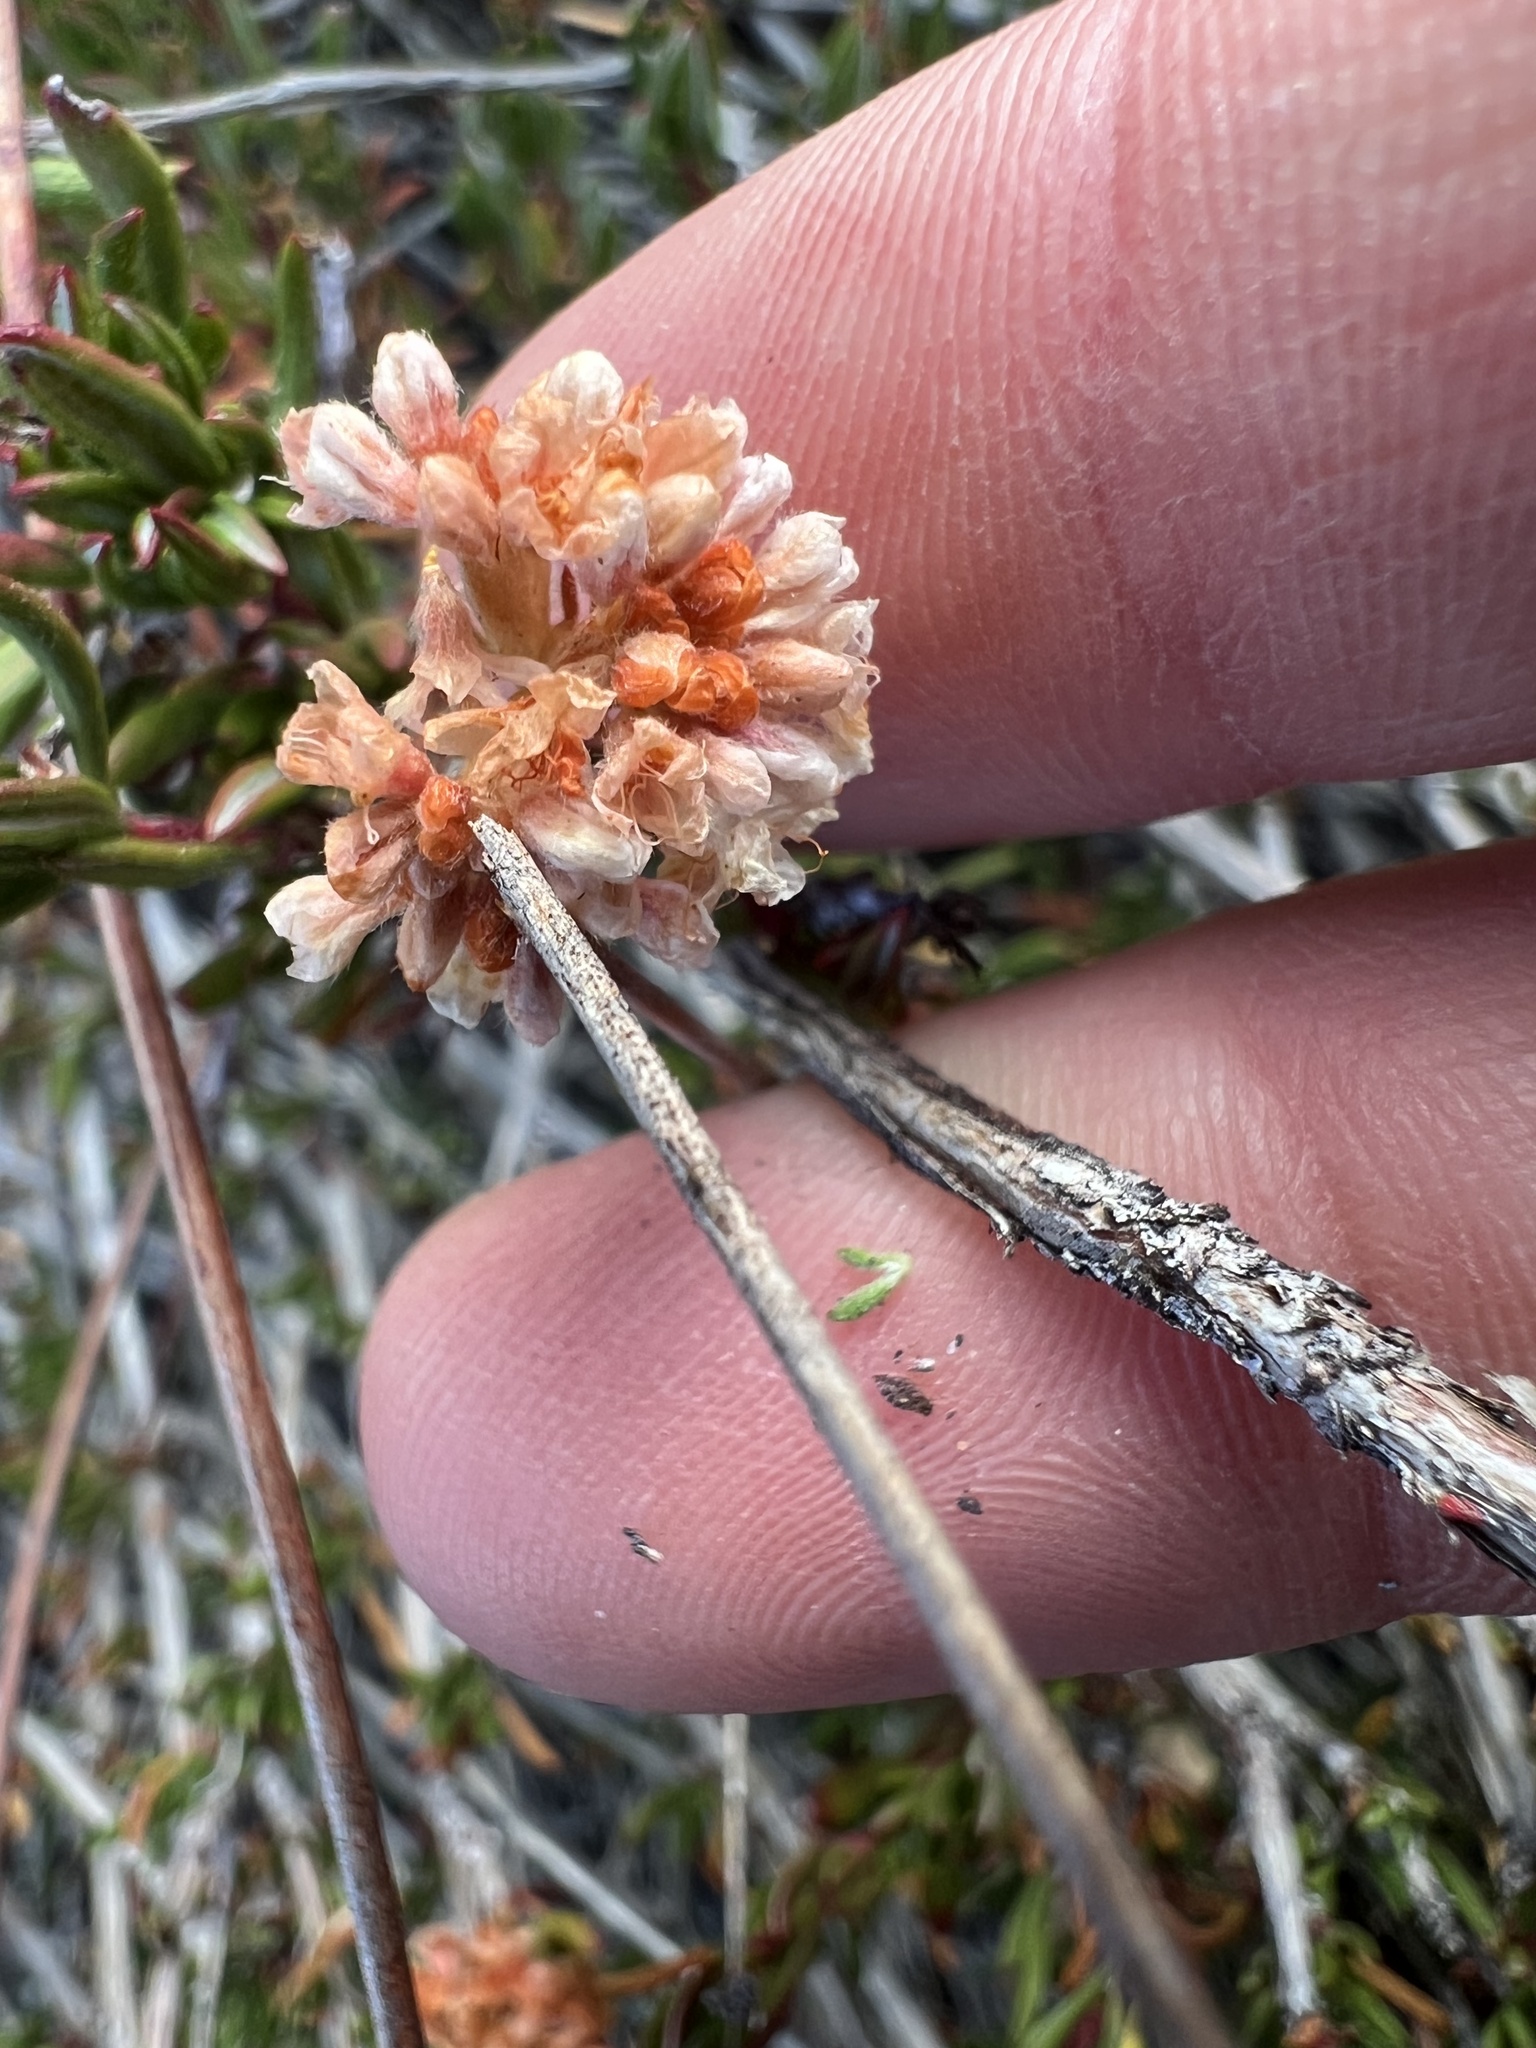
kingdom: Plantae
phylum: Tracheophyta
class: Magnoliopsida
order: Caryophyllales
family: Polygonaceae
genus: Eriogonum
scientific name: Eriogonum fasciculatum
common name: California wild buckwheat
